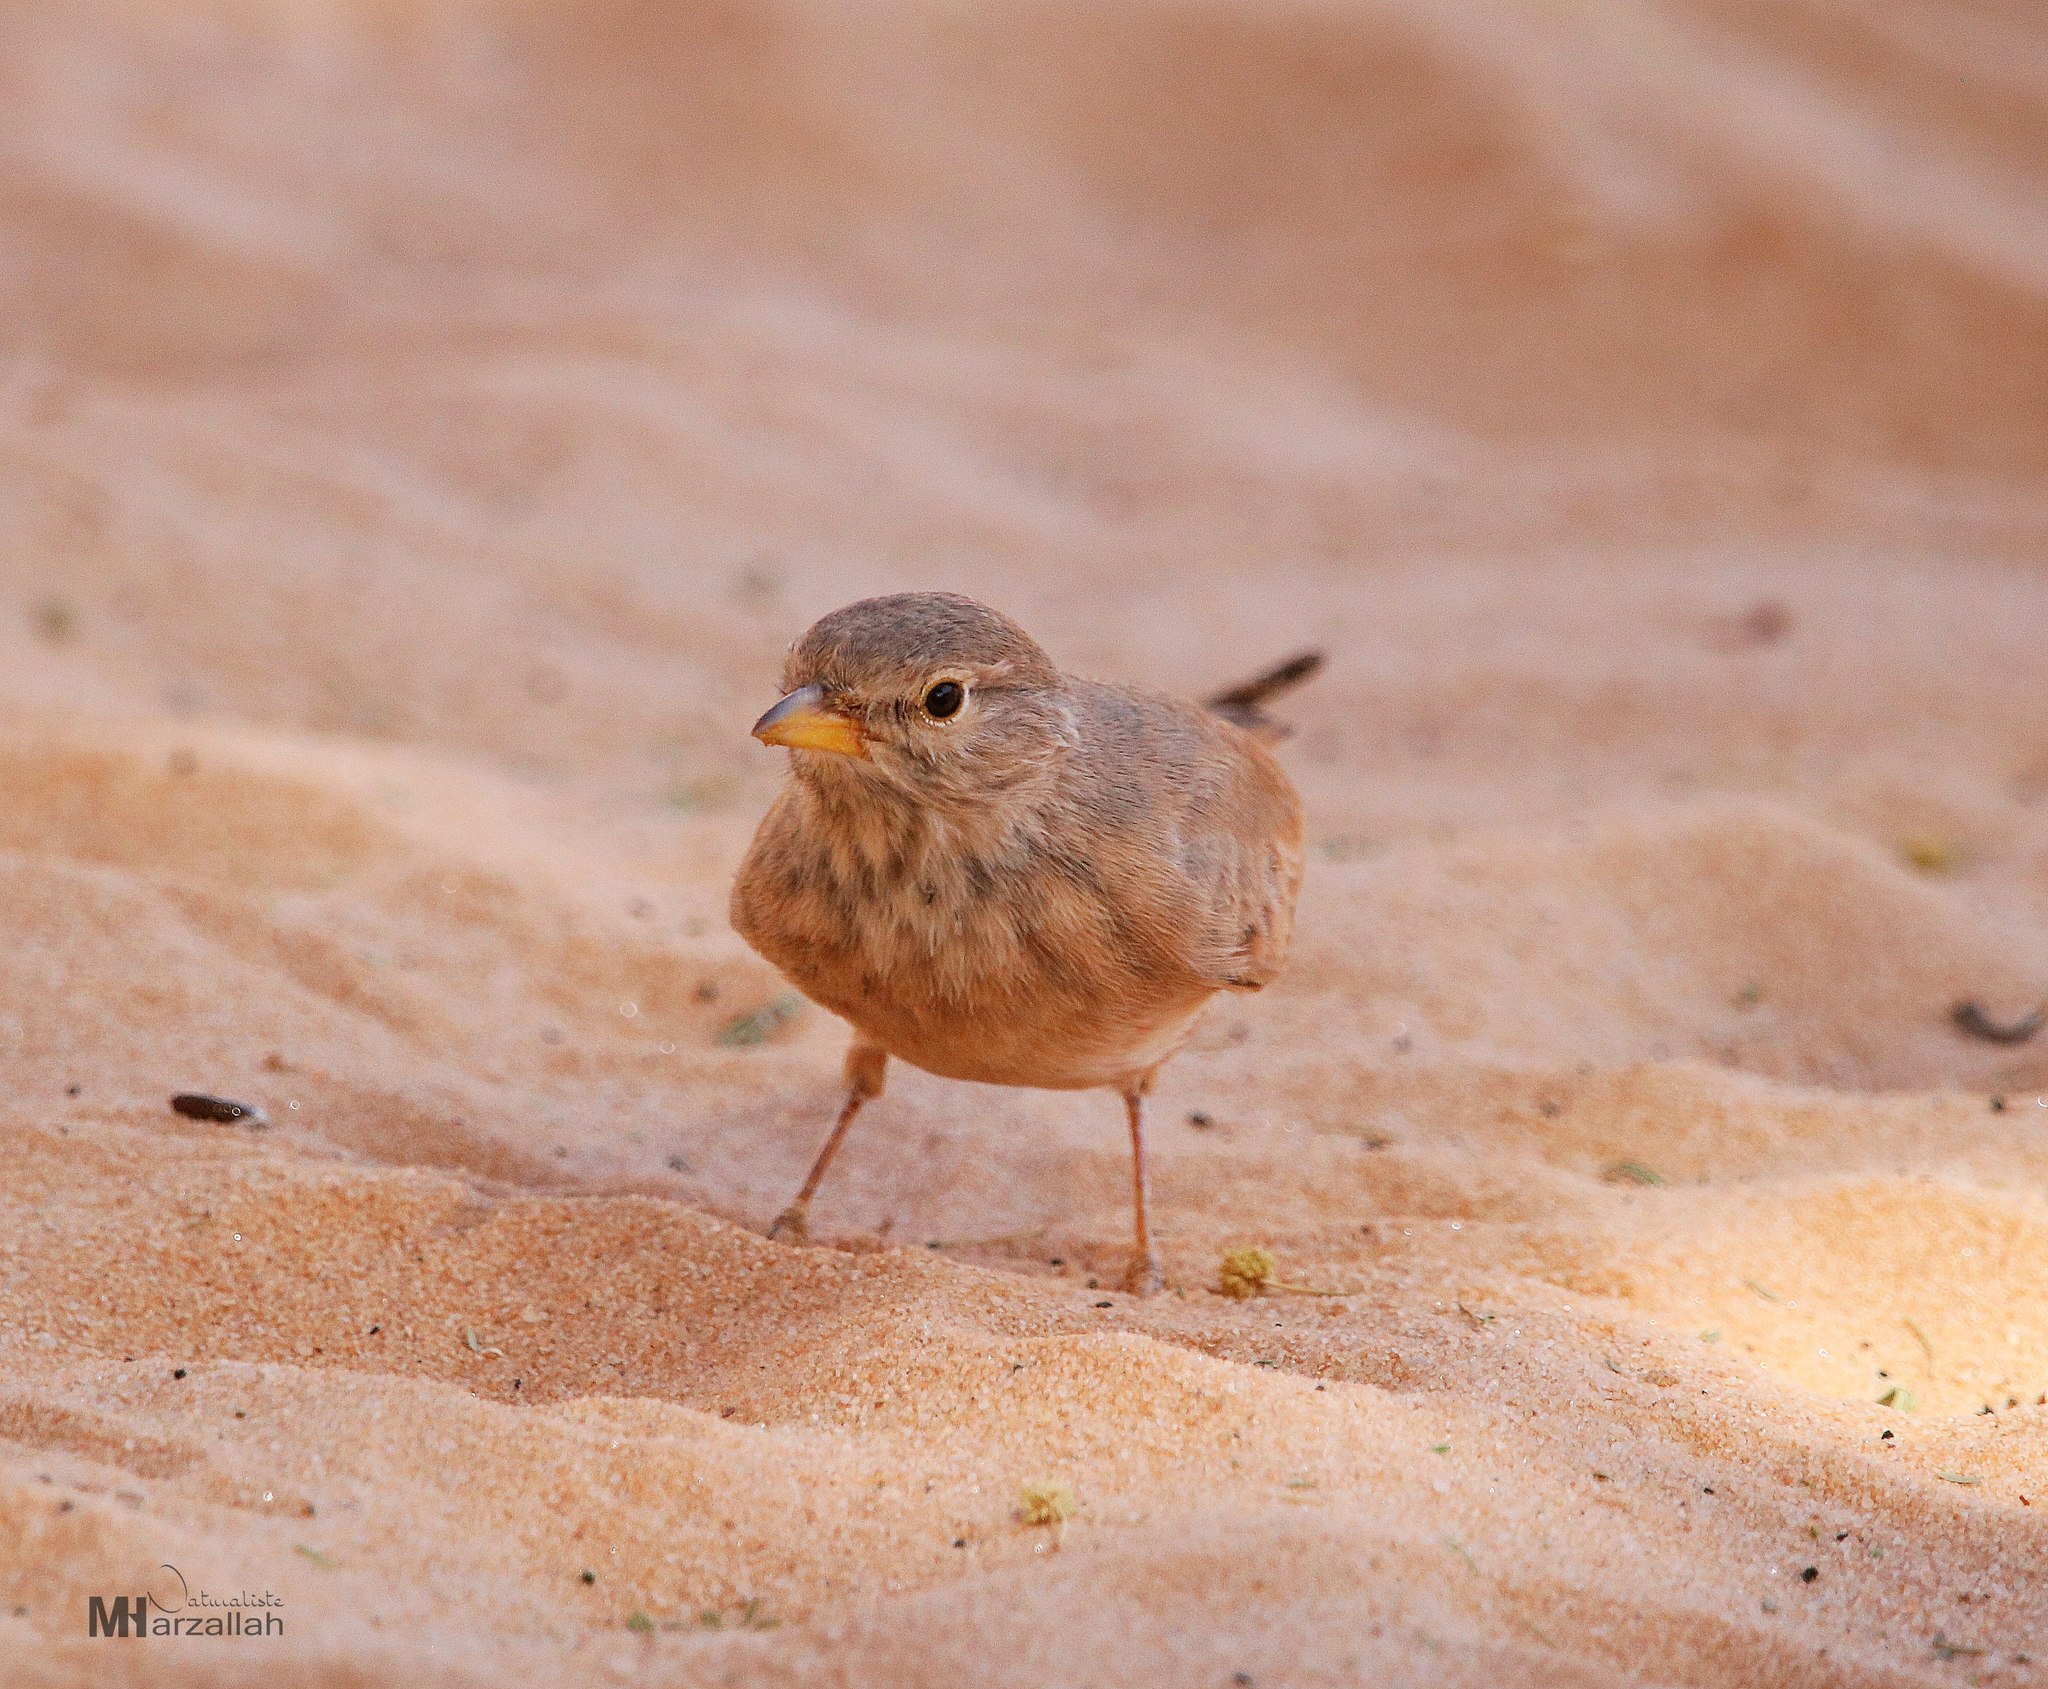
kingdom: Animalia
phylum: Chordata
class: Aves
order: Passeriformes
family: Alaudidae
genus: Ammomanes
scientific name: Ammomanes deserti
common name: Desert lark
